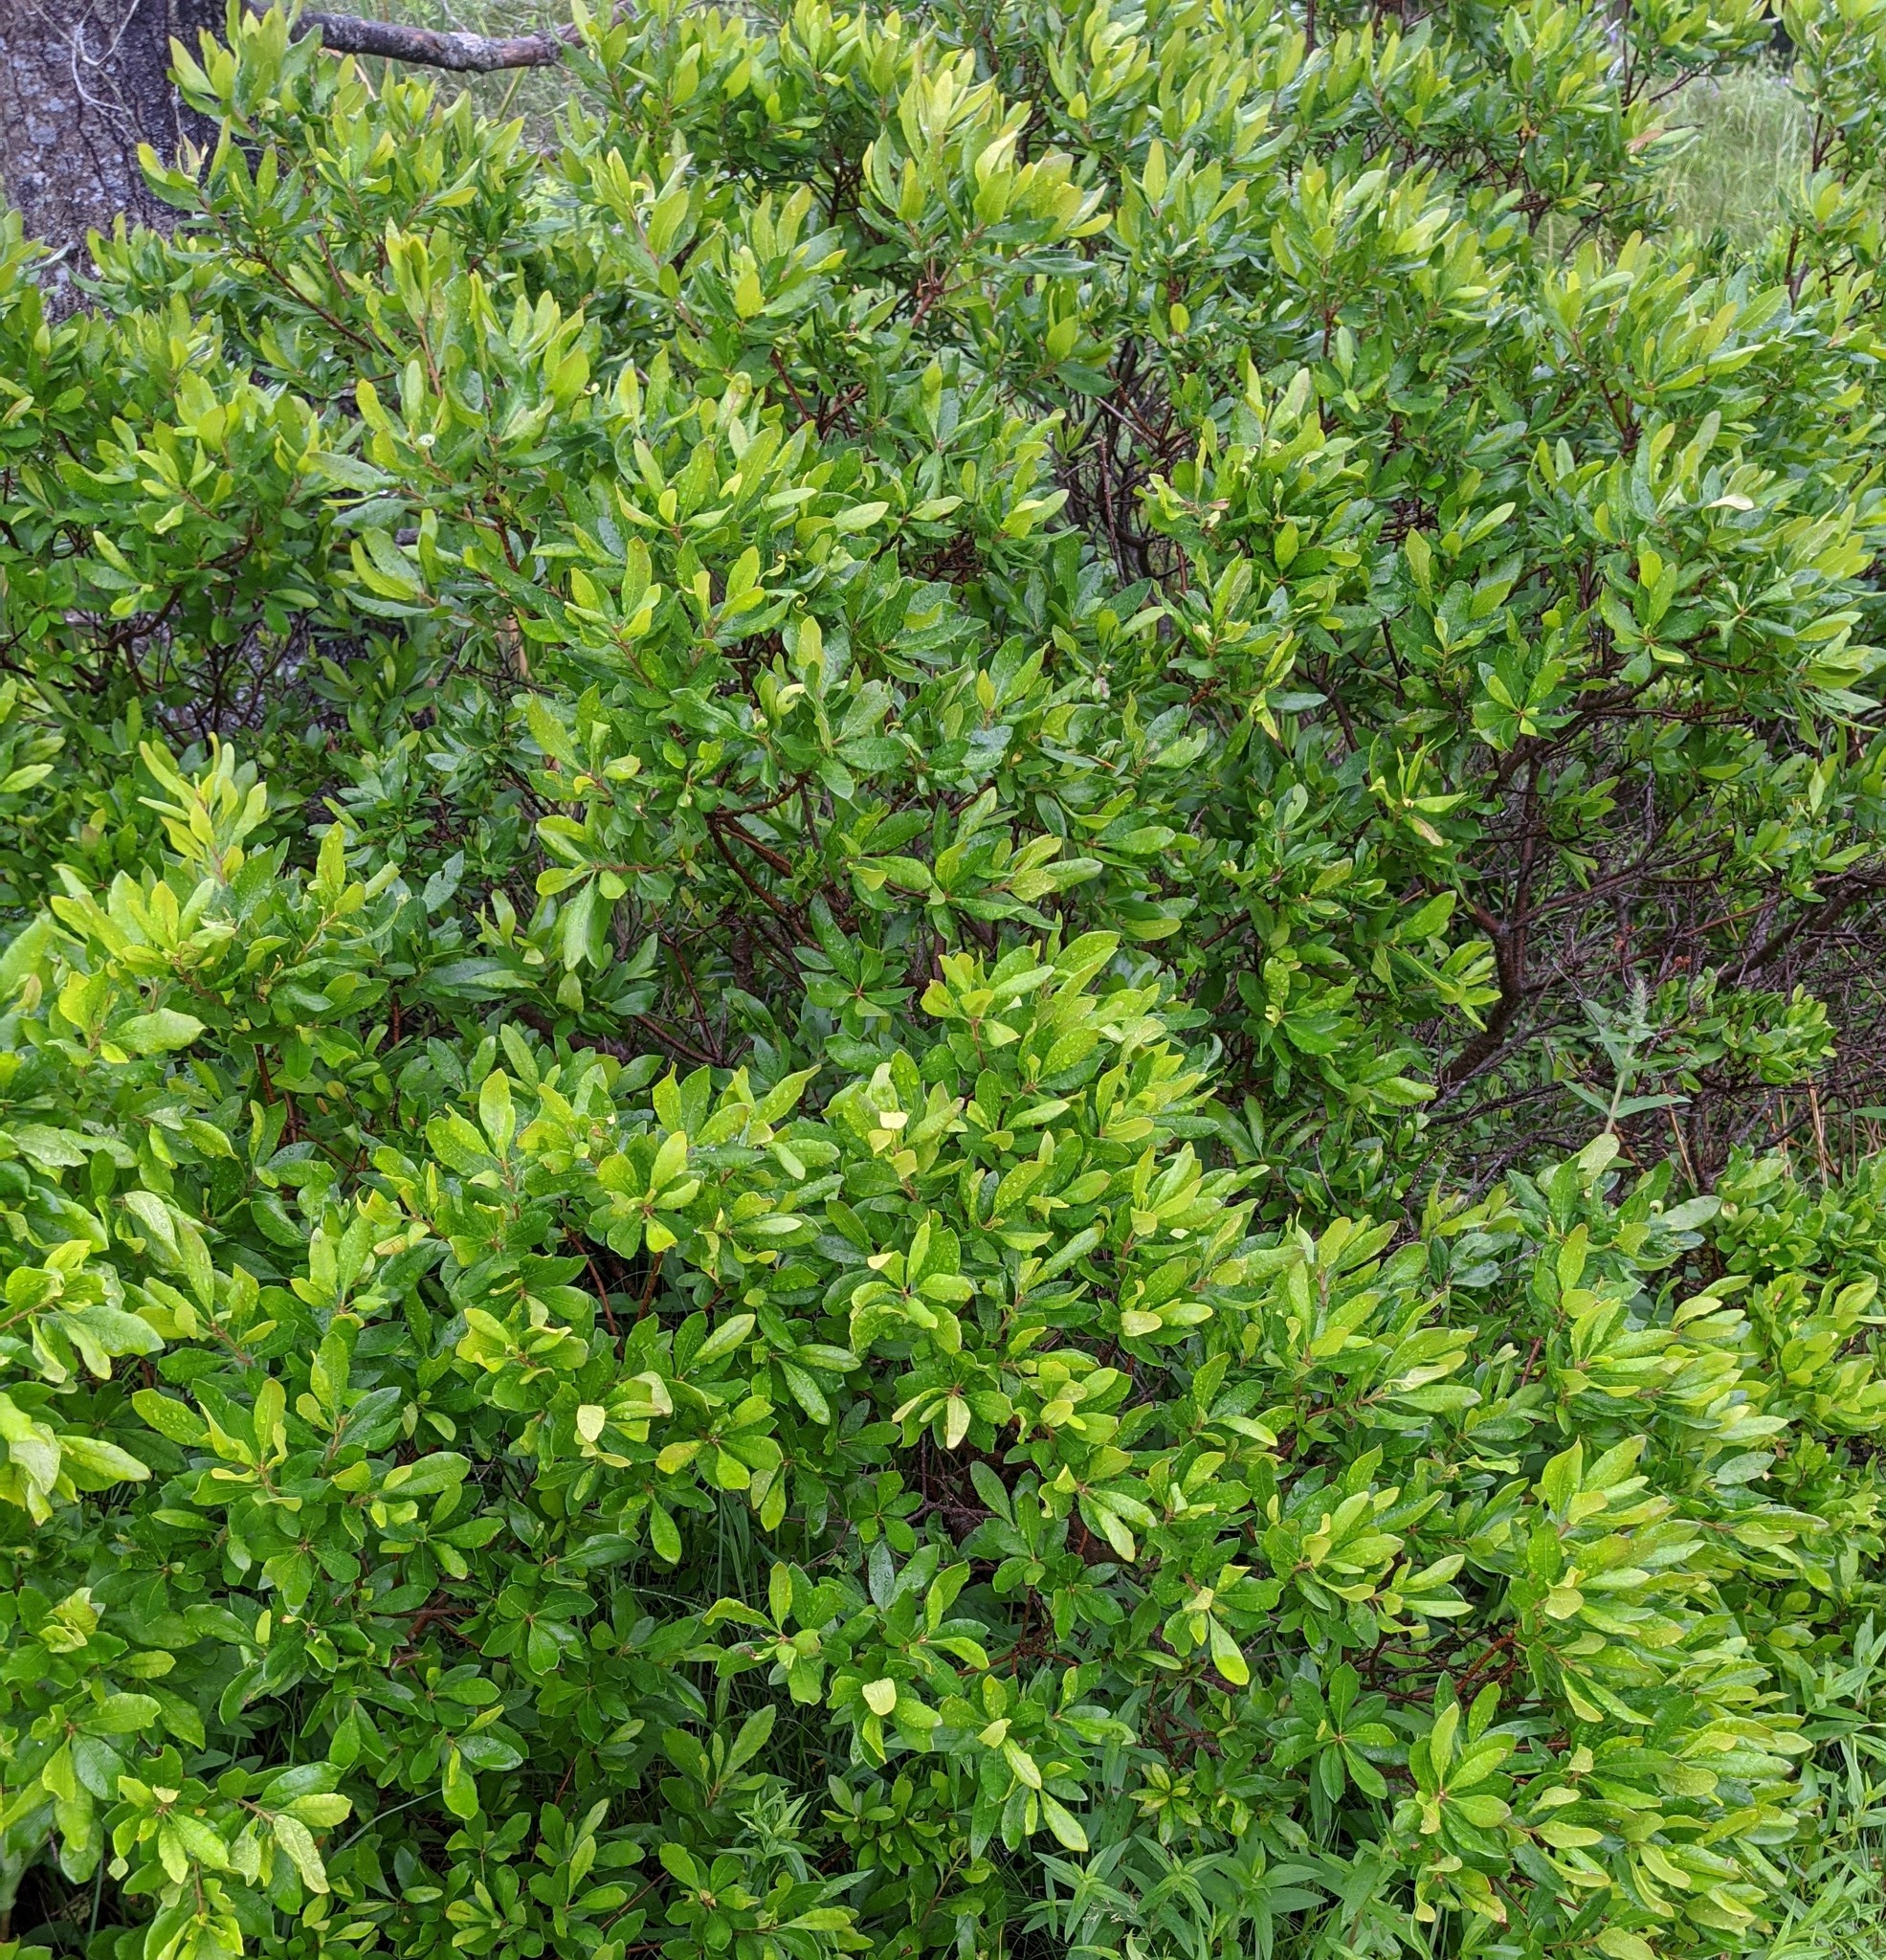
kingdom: Plantae
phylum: Tracheophyta
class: Magnoliopsida
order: Fagales
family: Myricaceae
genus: Morella
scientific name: Morella pensylvanica
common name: Northern bayberry
